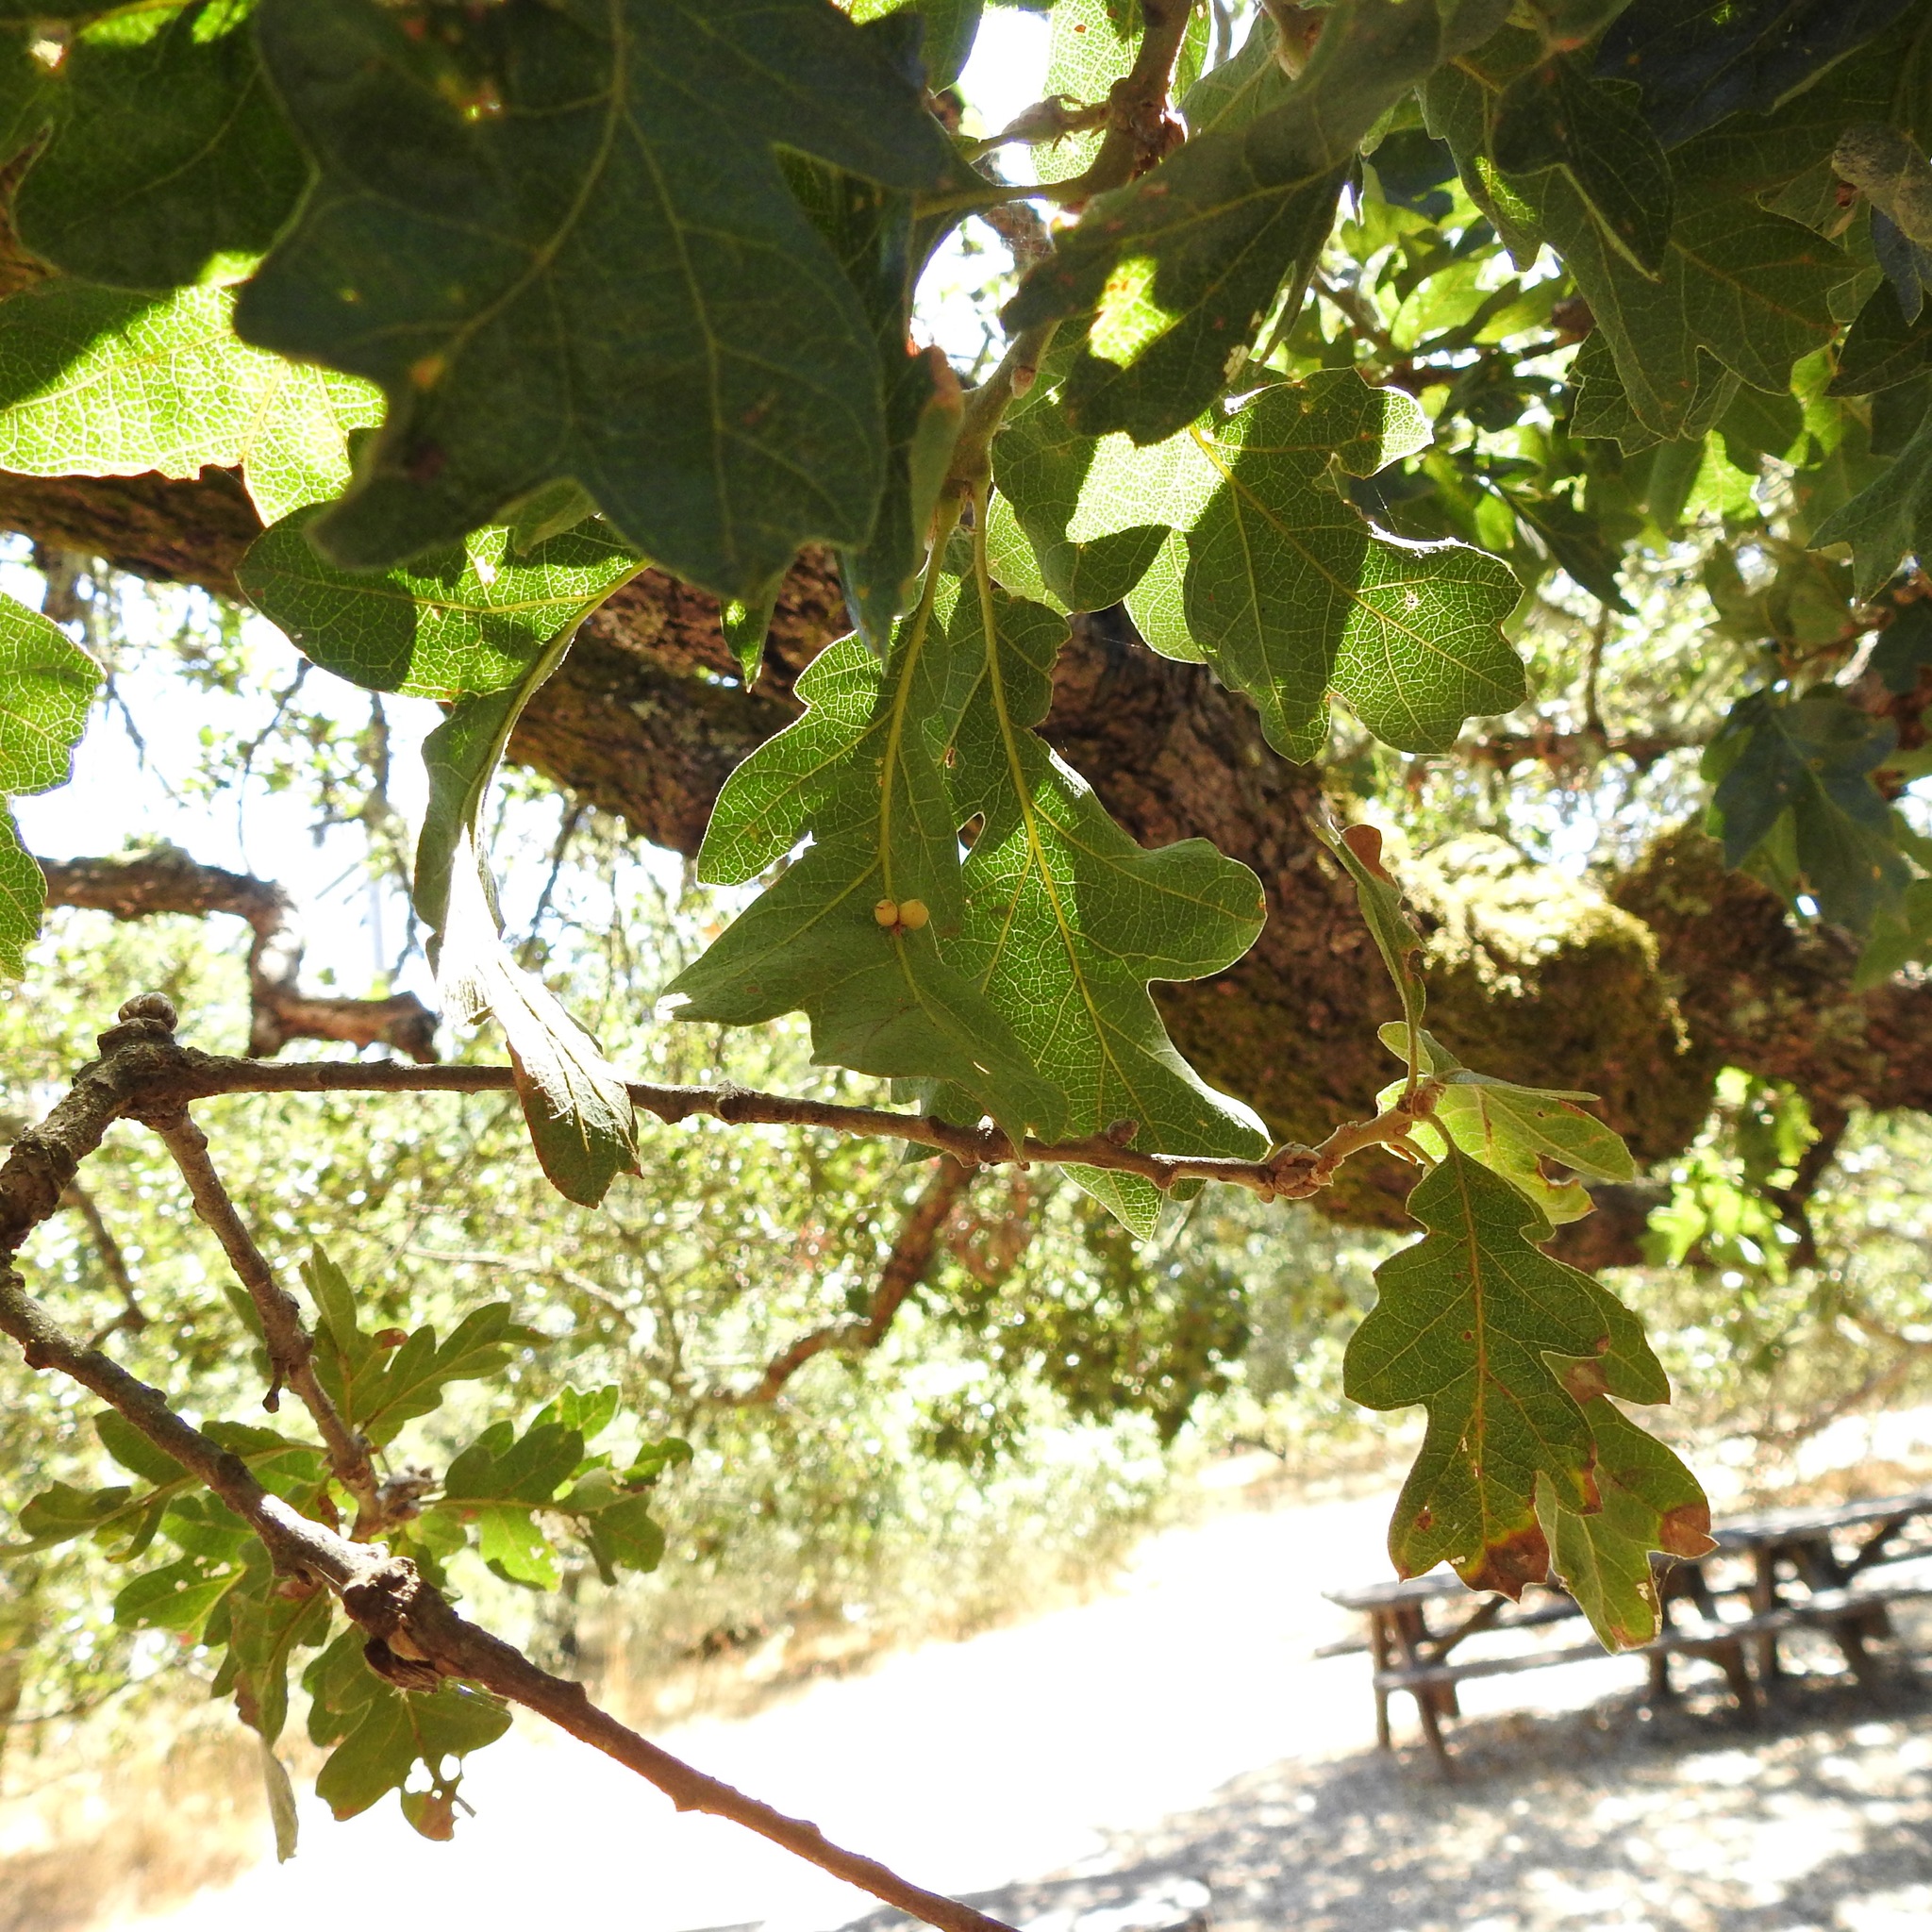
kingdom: Animalia
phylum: Arthropoda
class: Insecta
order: Hymenoptera
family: Cynipidae
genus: Andricus
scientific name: Andricus
